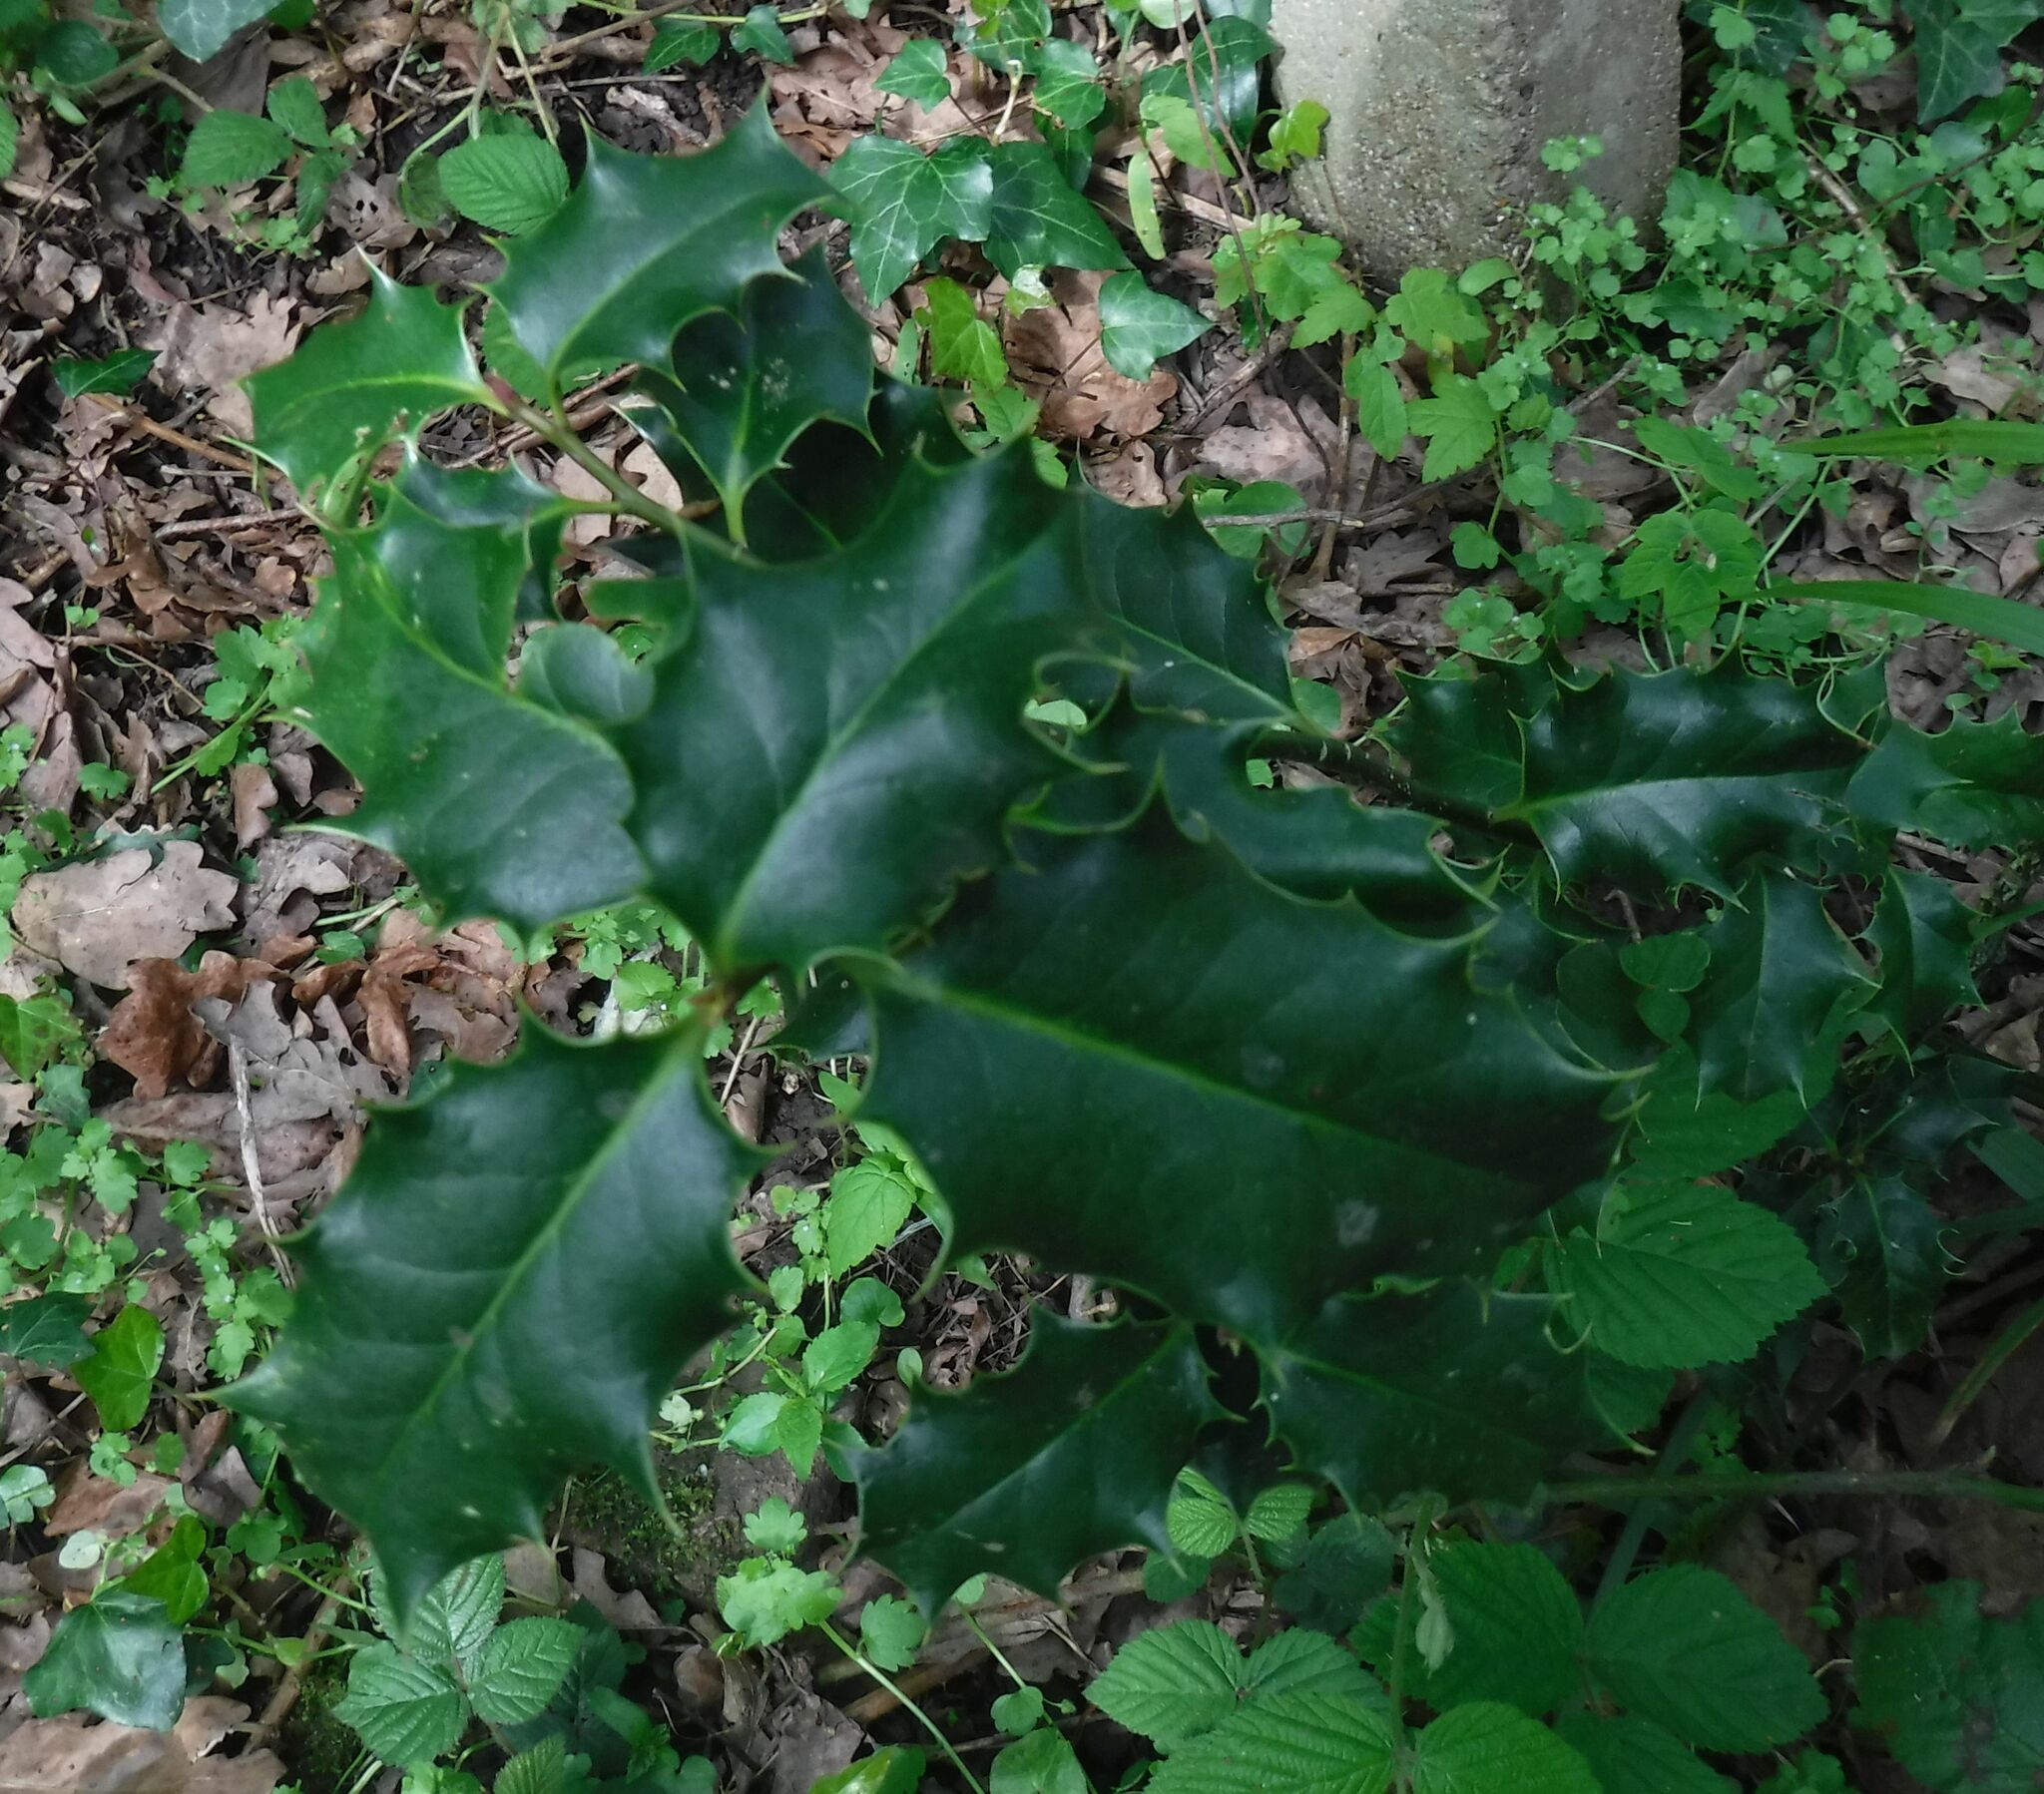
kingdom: Plantae
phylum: Tracheophyta
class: Magnoliopsida
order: Aquifoliales
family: Aquifoliaceae
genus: Ilex
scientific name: Ilex aquifolium
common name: English holly
